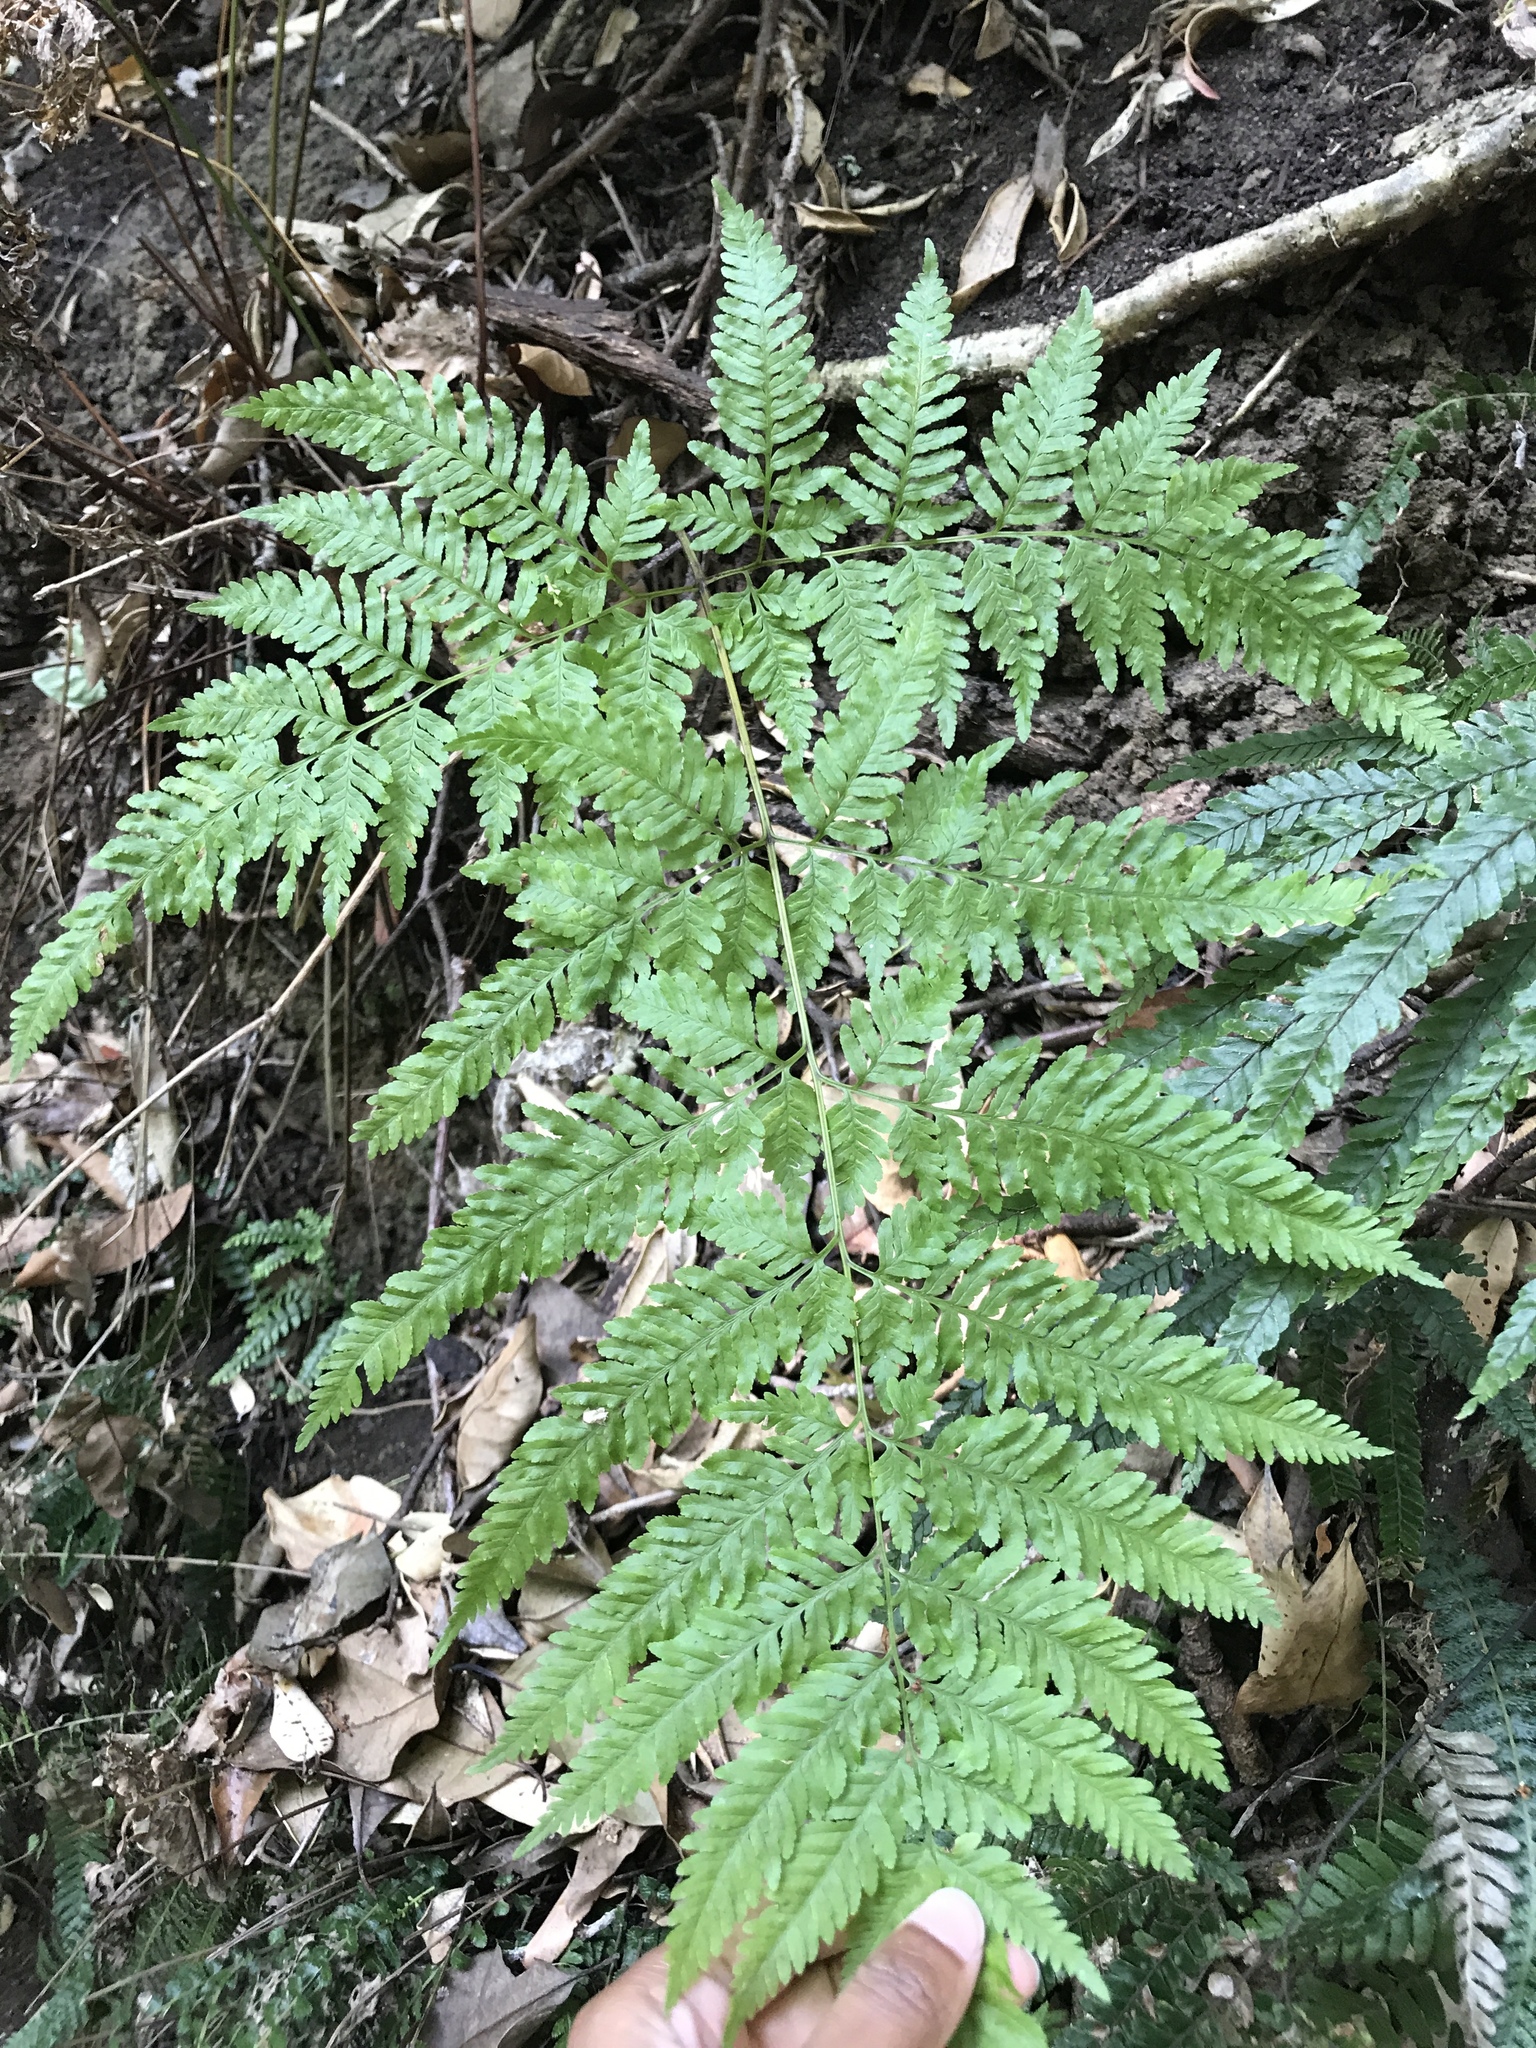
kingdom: Plantae
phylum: Tracheophyta
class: Polypodiopsida
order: Polypodiales
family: Pteridaceae
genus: Pteris
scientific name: Pteris tremula
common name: Australian brake
